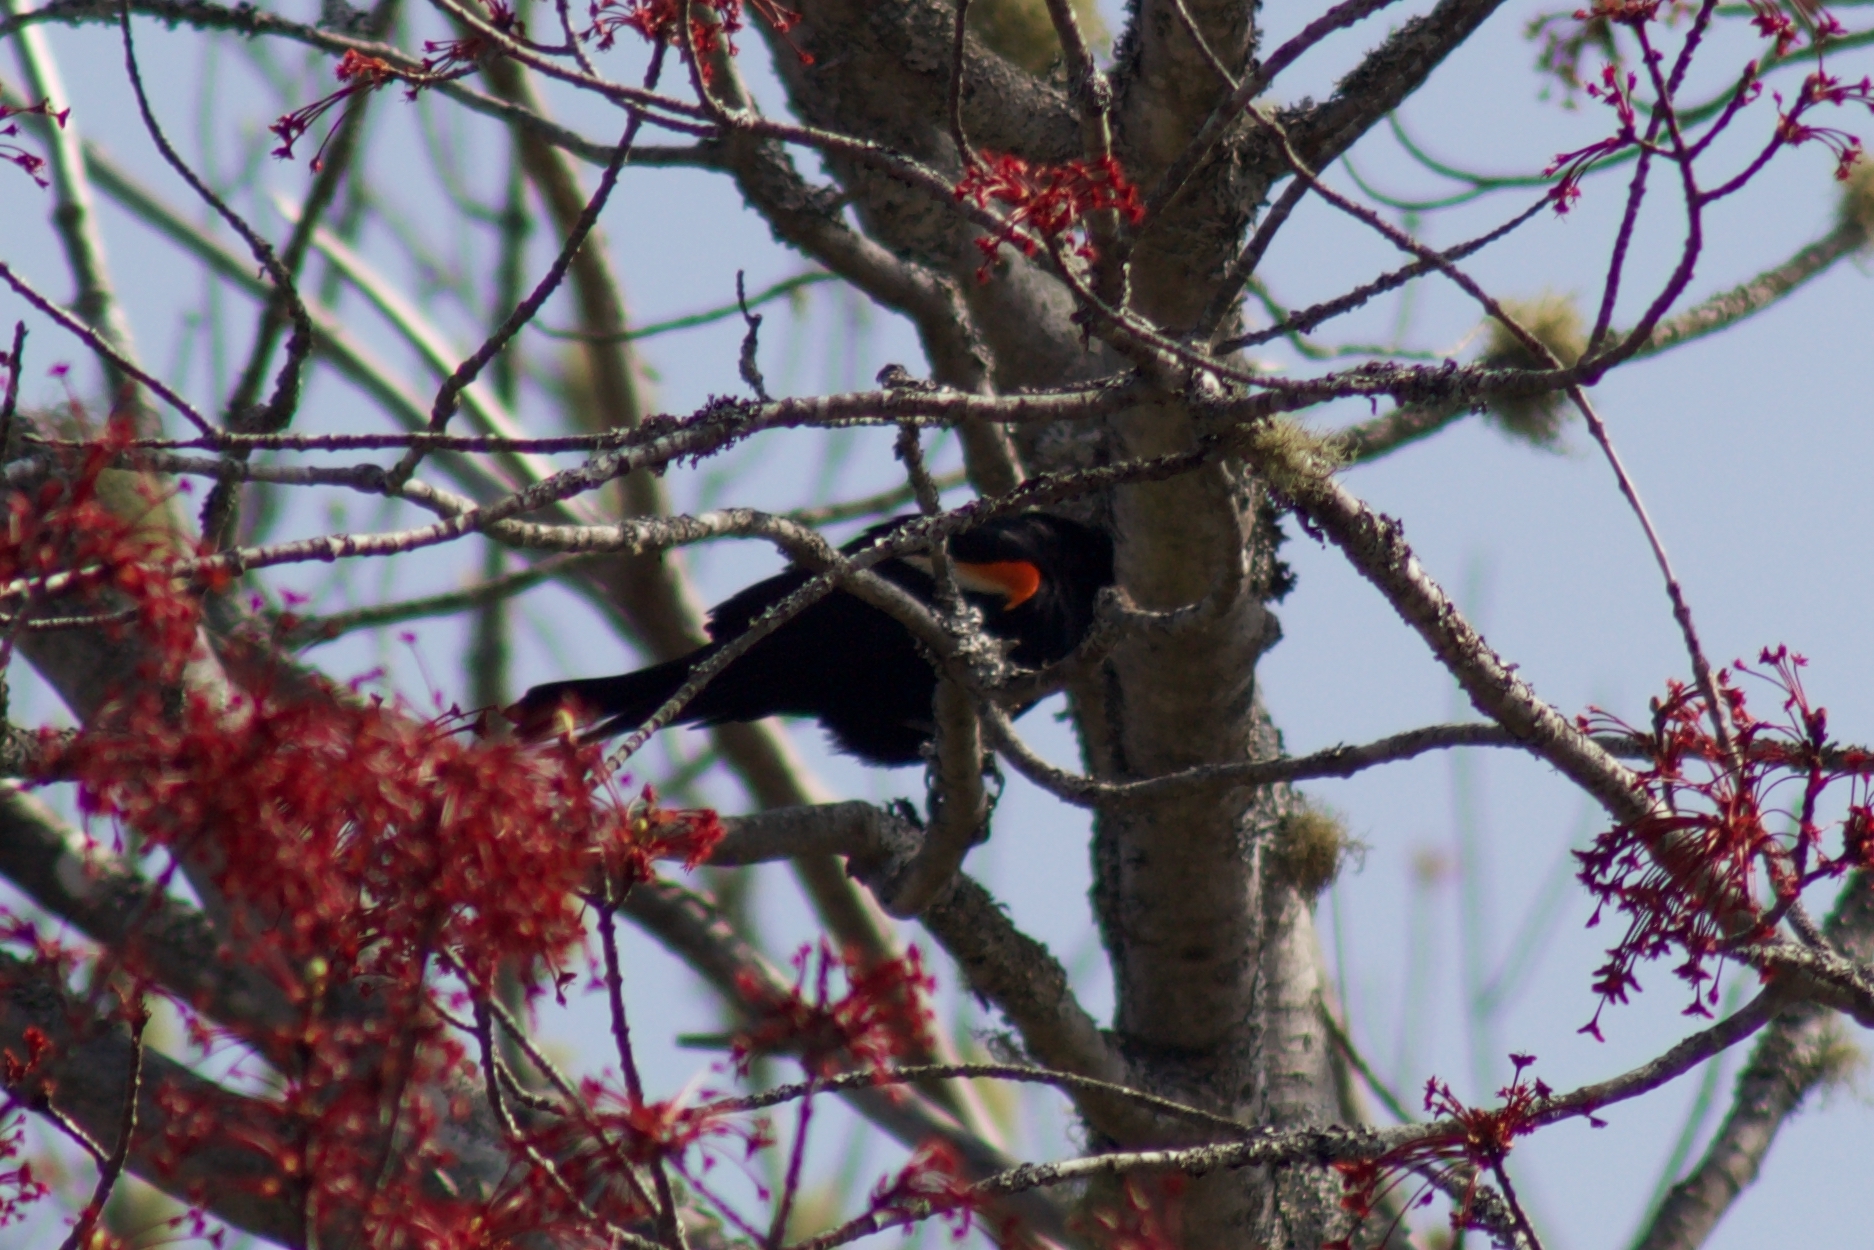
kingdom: Animalia
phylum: Chordata
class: Aves
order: Passeriformes
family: Icteridae
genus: Agelaius
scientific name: Agelaius phoeniceus
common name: Red-winged blackbird
